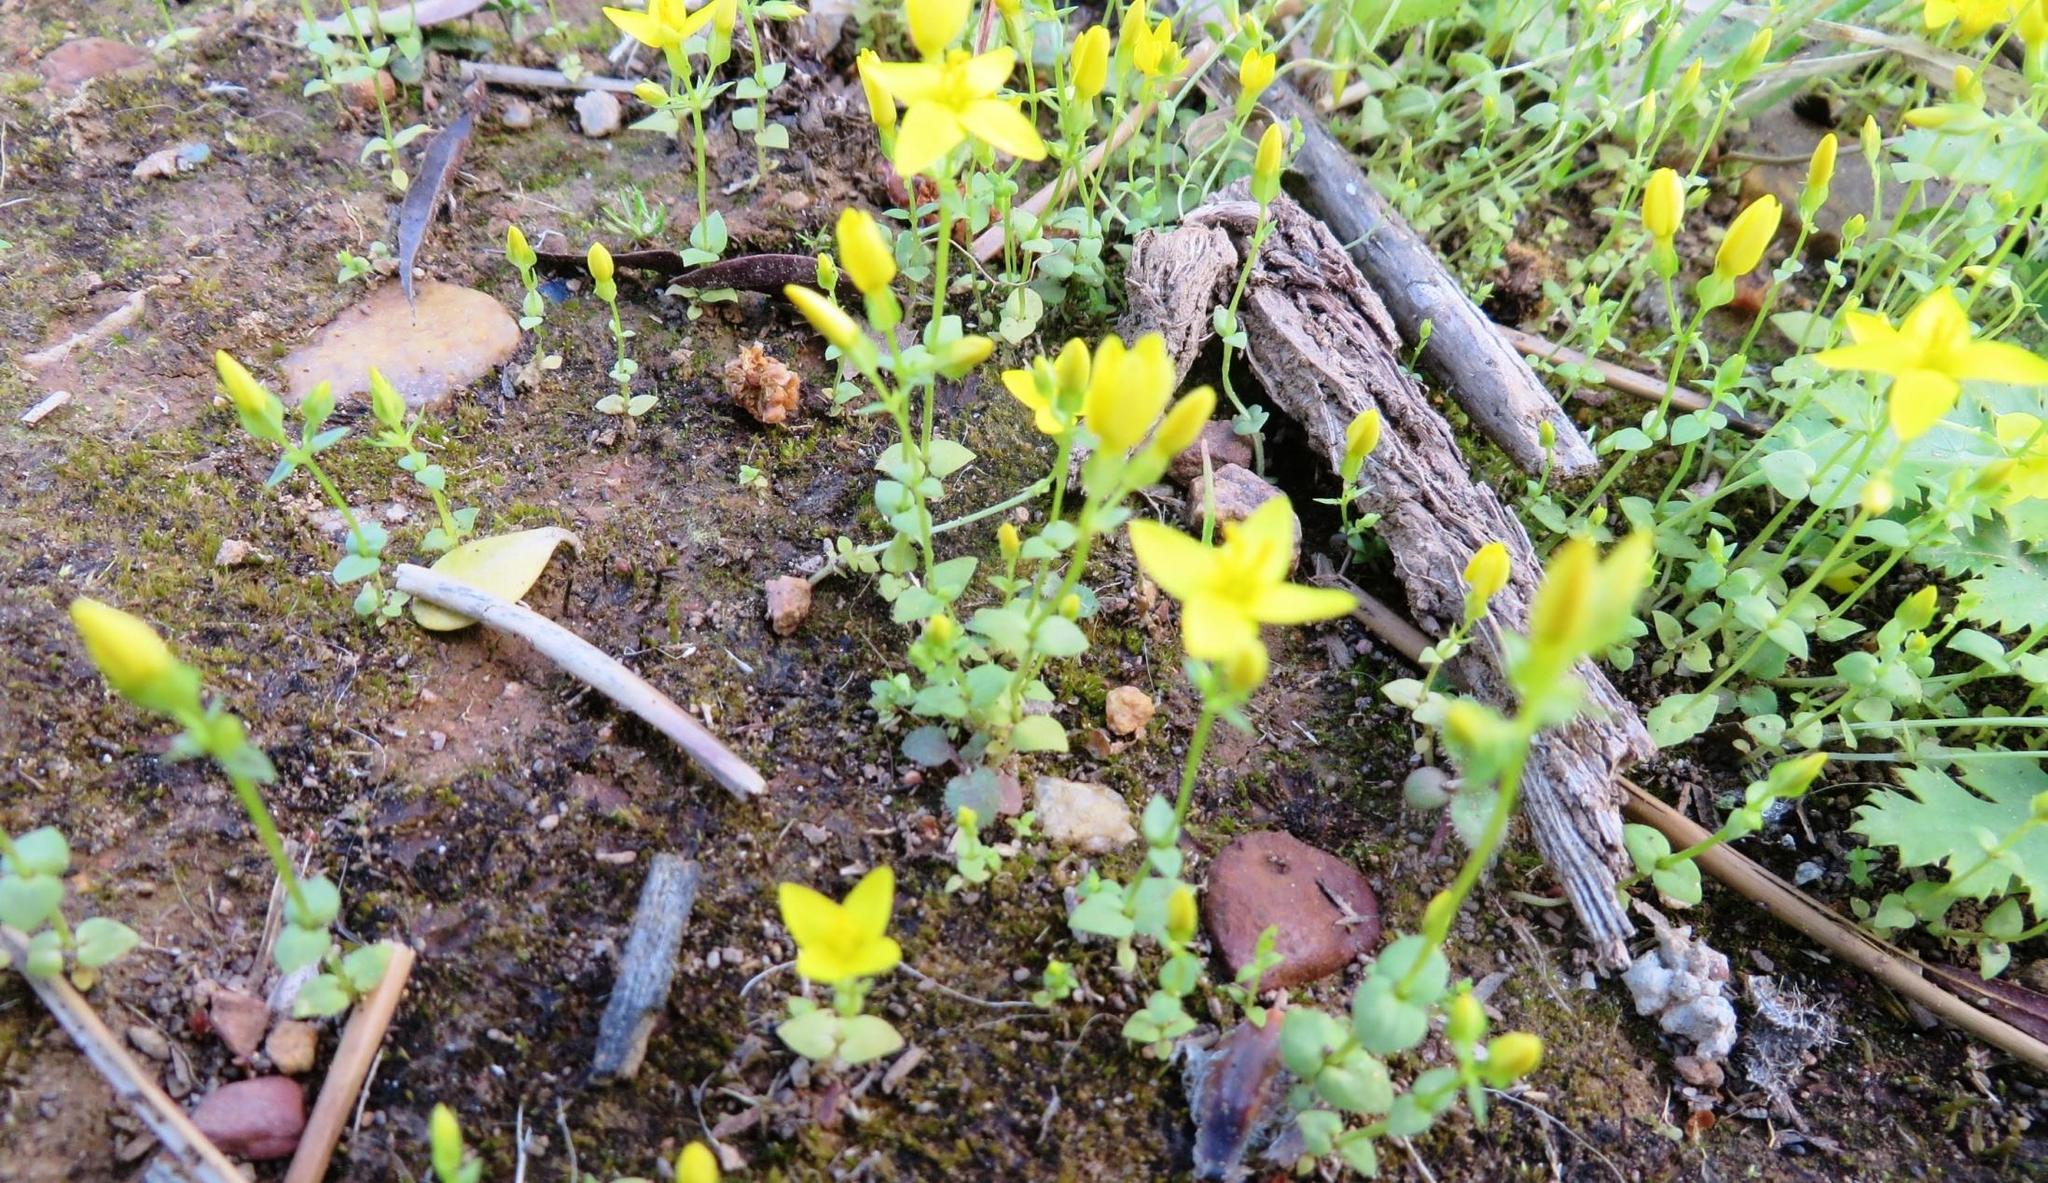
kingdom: Plantae
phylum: Tracheophyta
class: Magnoliopsida
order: Gentianales
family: Gentianaceae
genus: Sebaea
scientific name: Sebaea aurea
